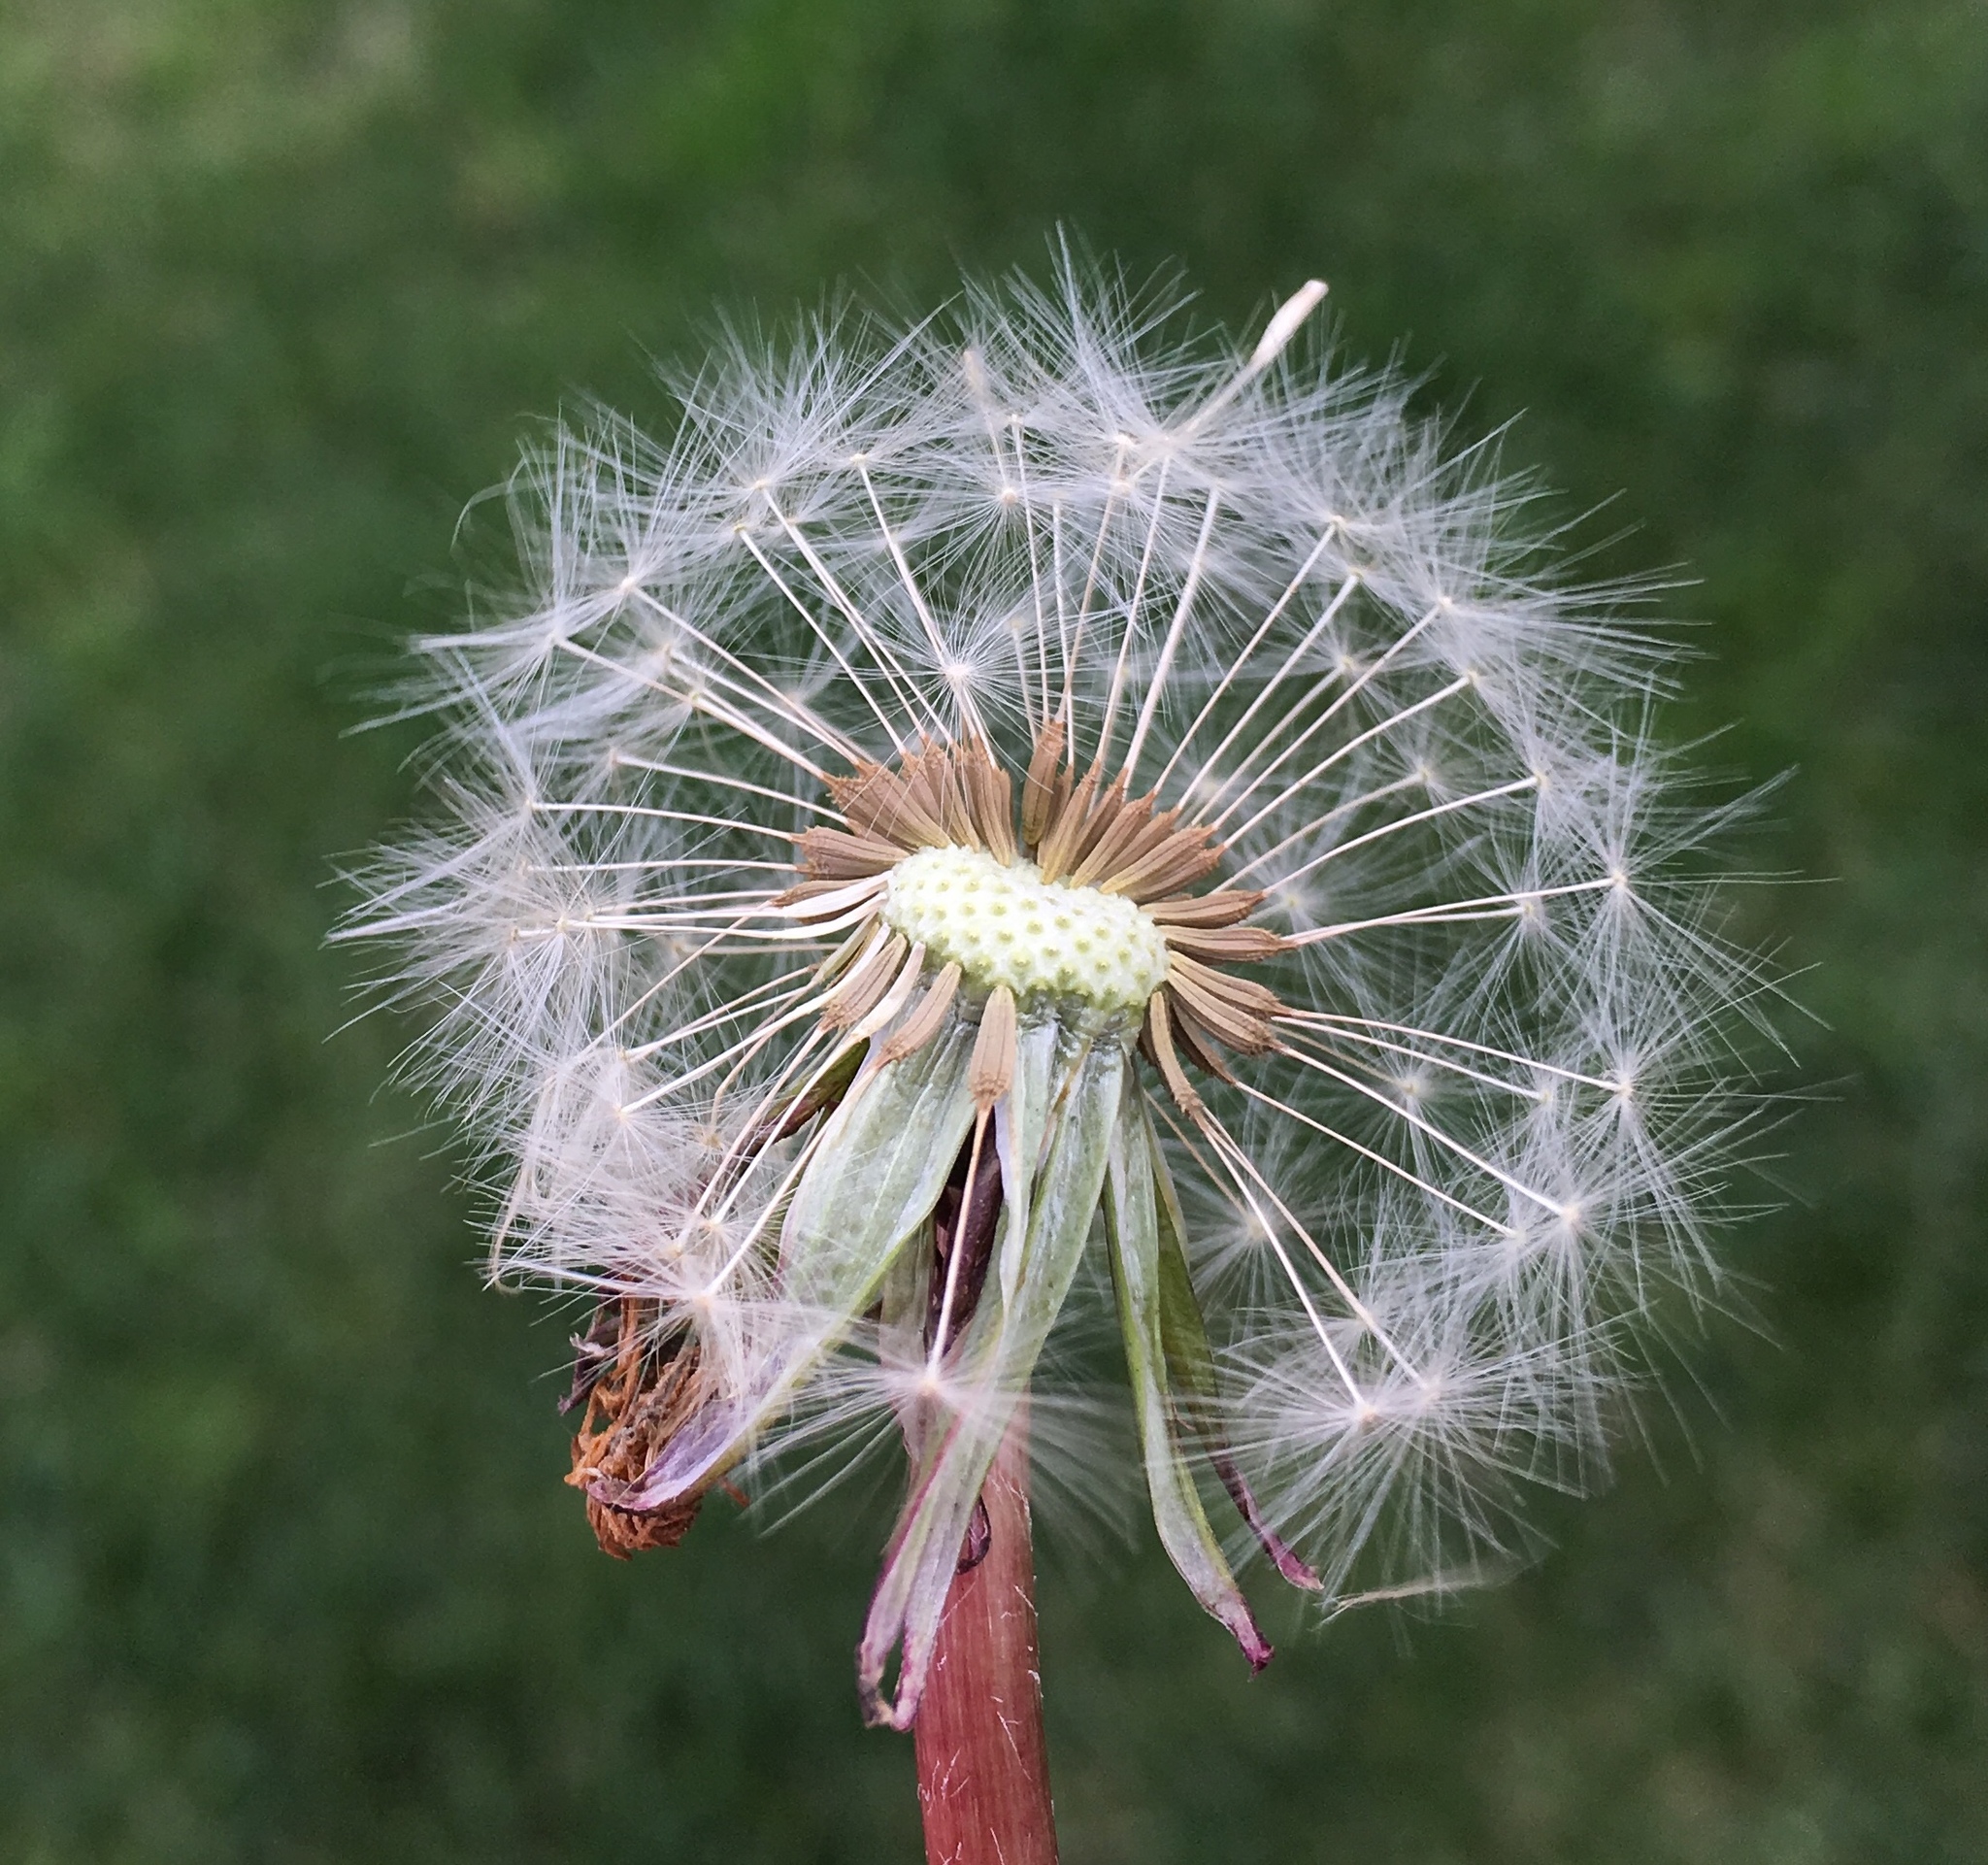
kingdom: Plantae
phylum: Tracheophyta
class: Magnoliopsida
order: Asterales
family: Asteraceae
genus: Taraxacum
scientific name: Taraxacum officinale
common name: Common dandelion
